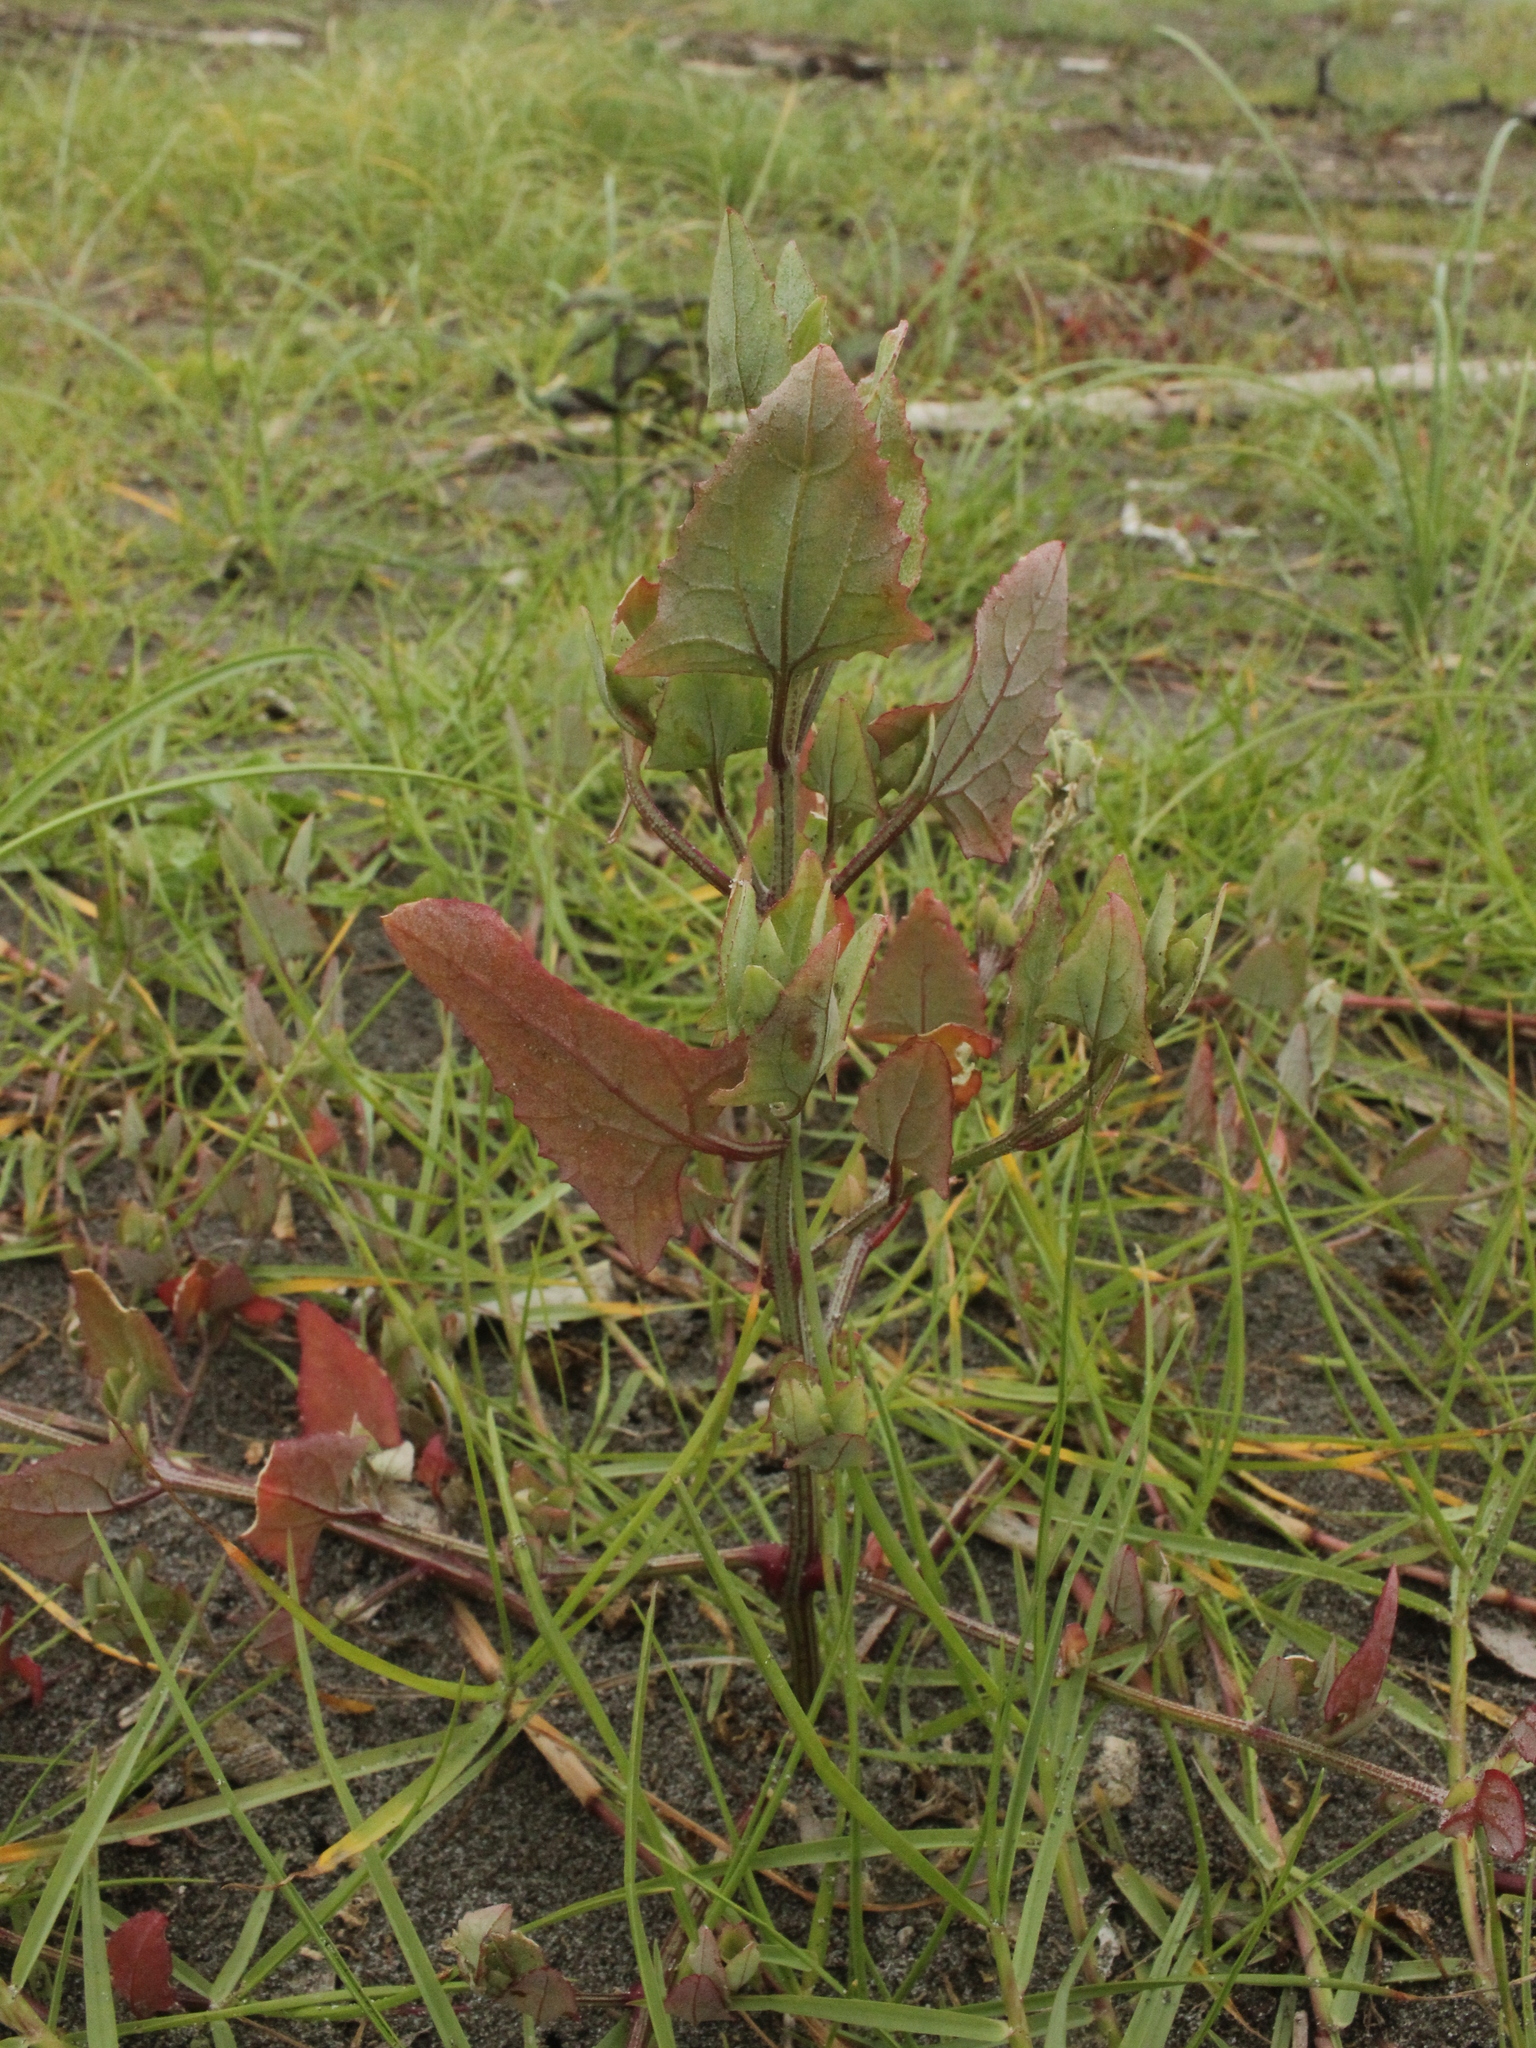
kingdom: Plantae
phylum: Tracheophyta
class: Magnoliopsida
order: Caryophyllales
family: Amaranthaceae
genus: Atriplex
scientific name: Atriplex prostrata
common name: Spear-leaved orache
